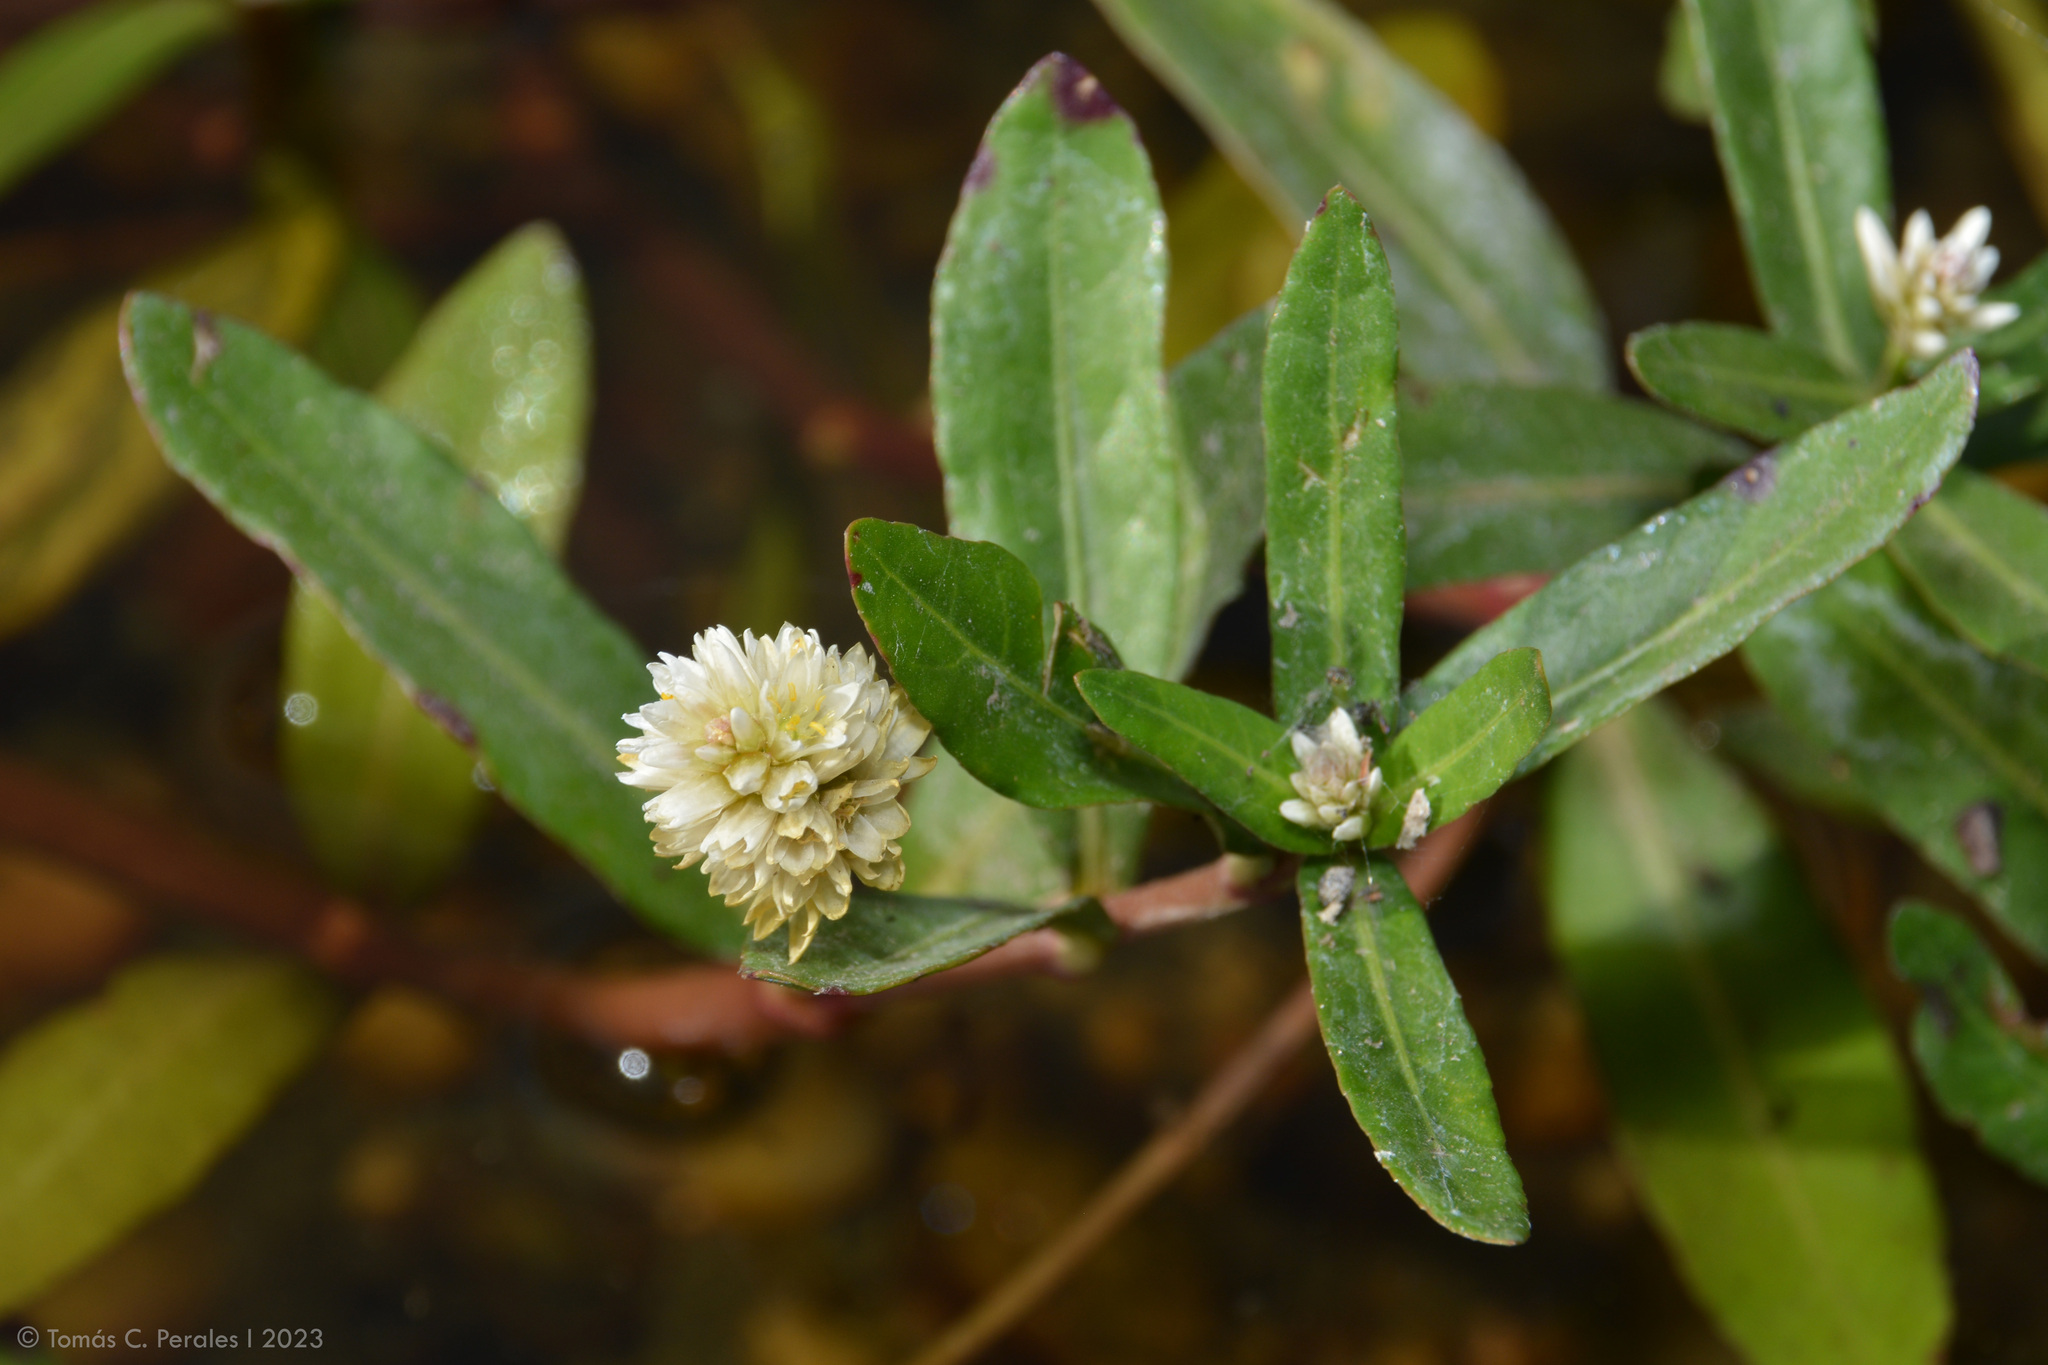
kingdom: Plantae
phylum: Tracheophyta
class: Magnoliopsida
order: Caryophyllales
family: Amaranthaceae
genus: Alternanthera
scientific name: Alternanthera philoxeroides
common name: Alligatorweed
